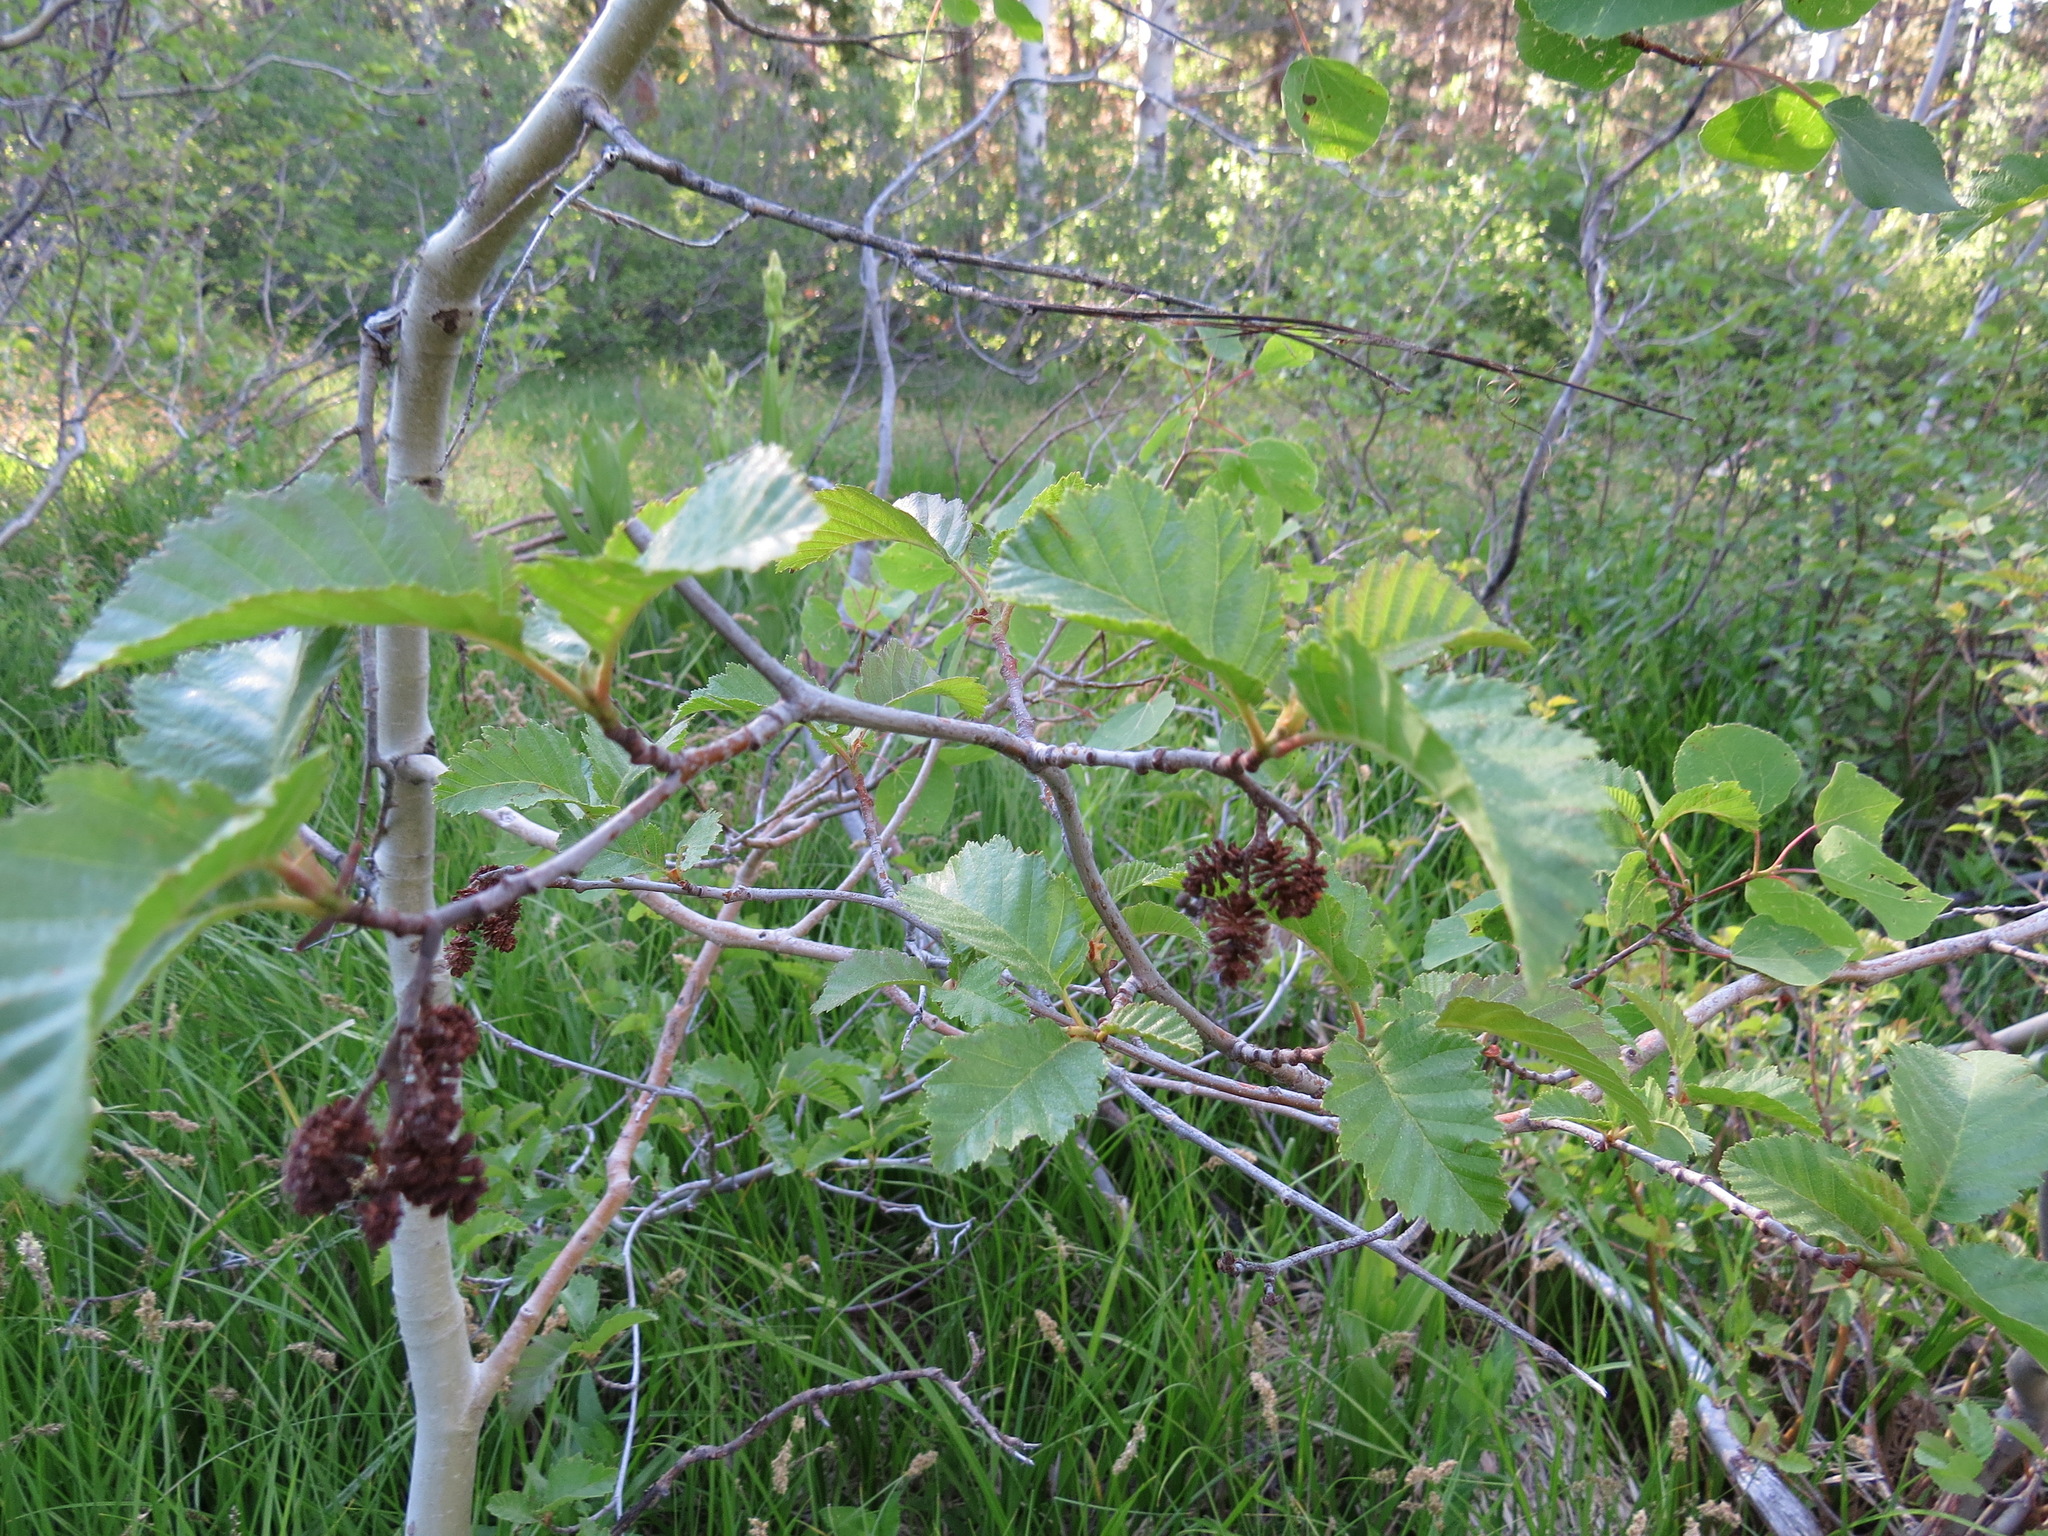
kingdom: Fungi
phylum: Ascomycota
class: Taphrinomycetes
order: Taphrinales
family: Taphrinaceae
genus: Taphrina
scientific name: Taphrina occidentalis
